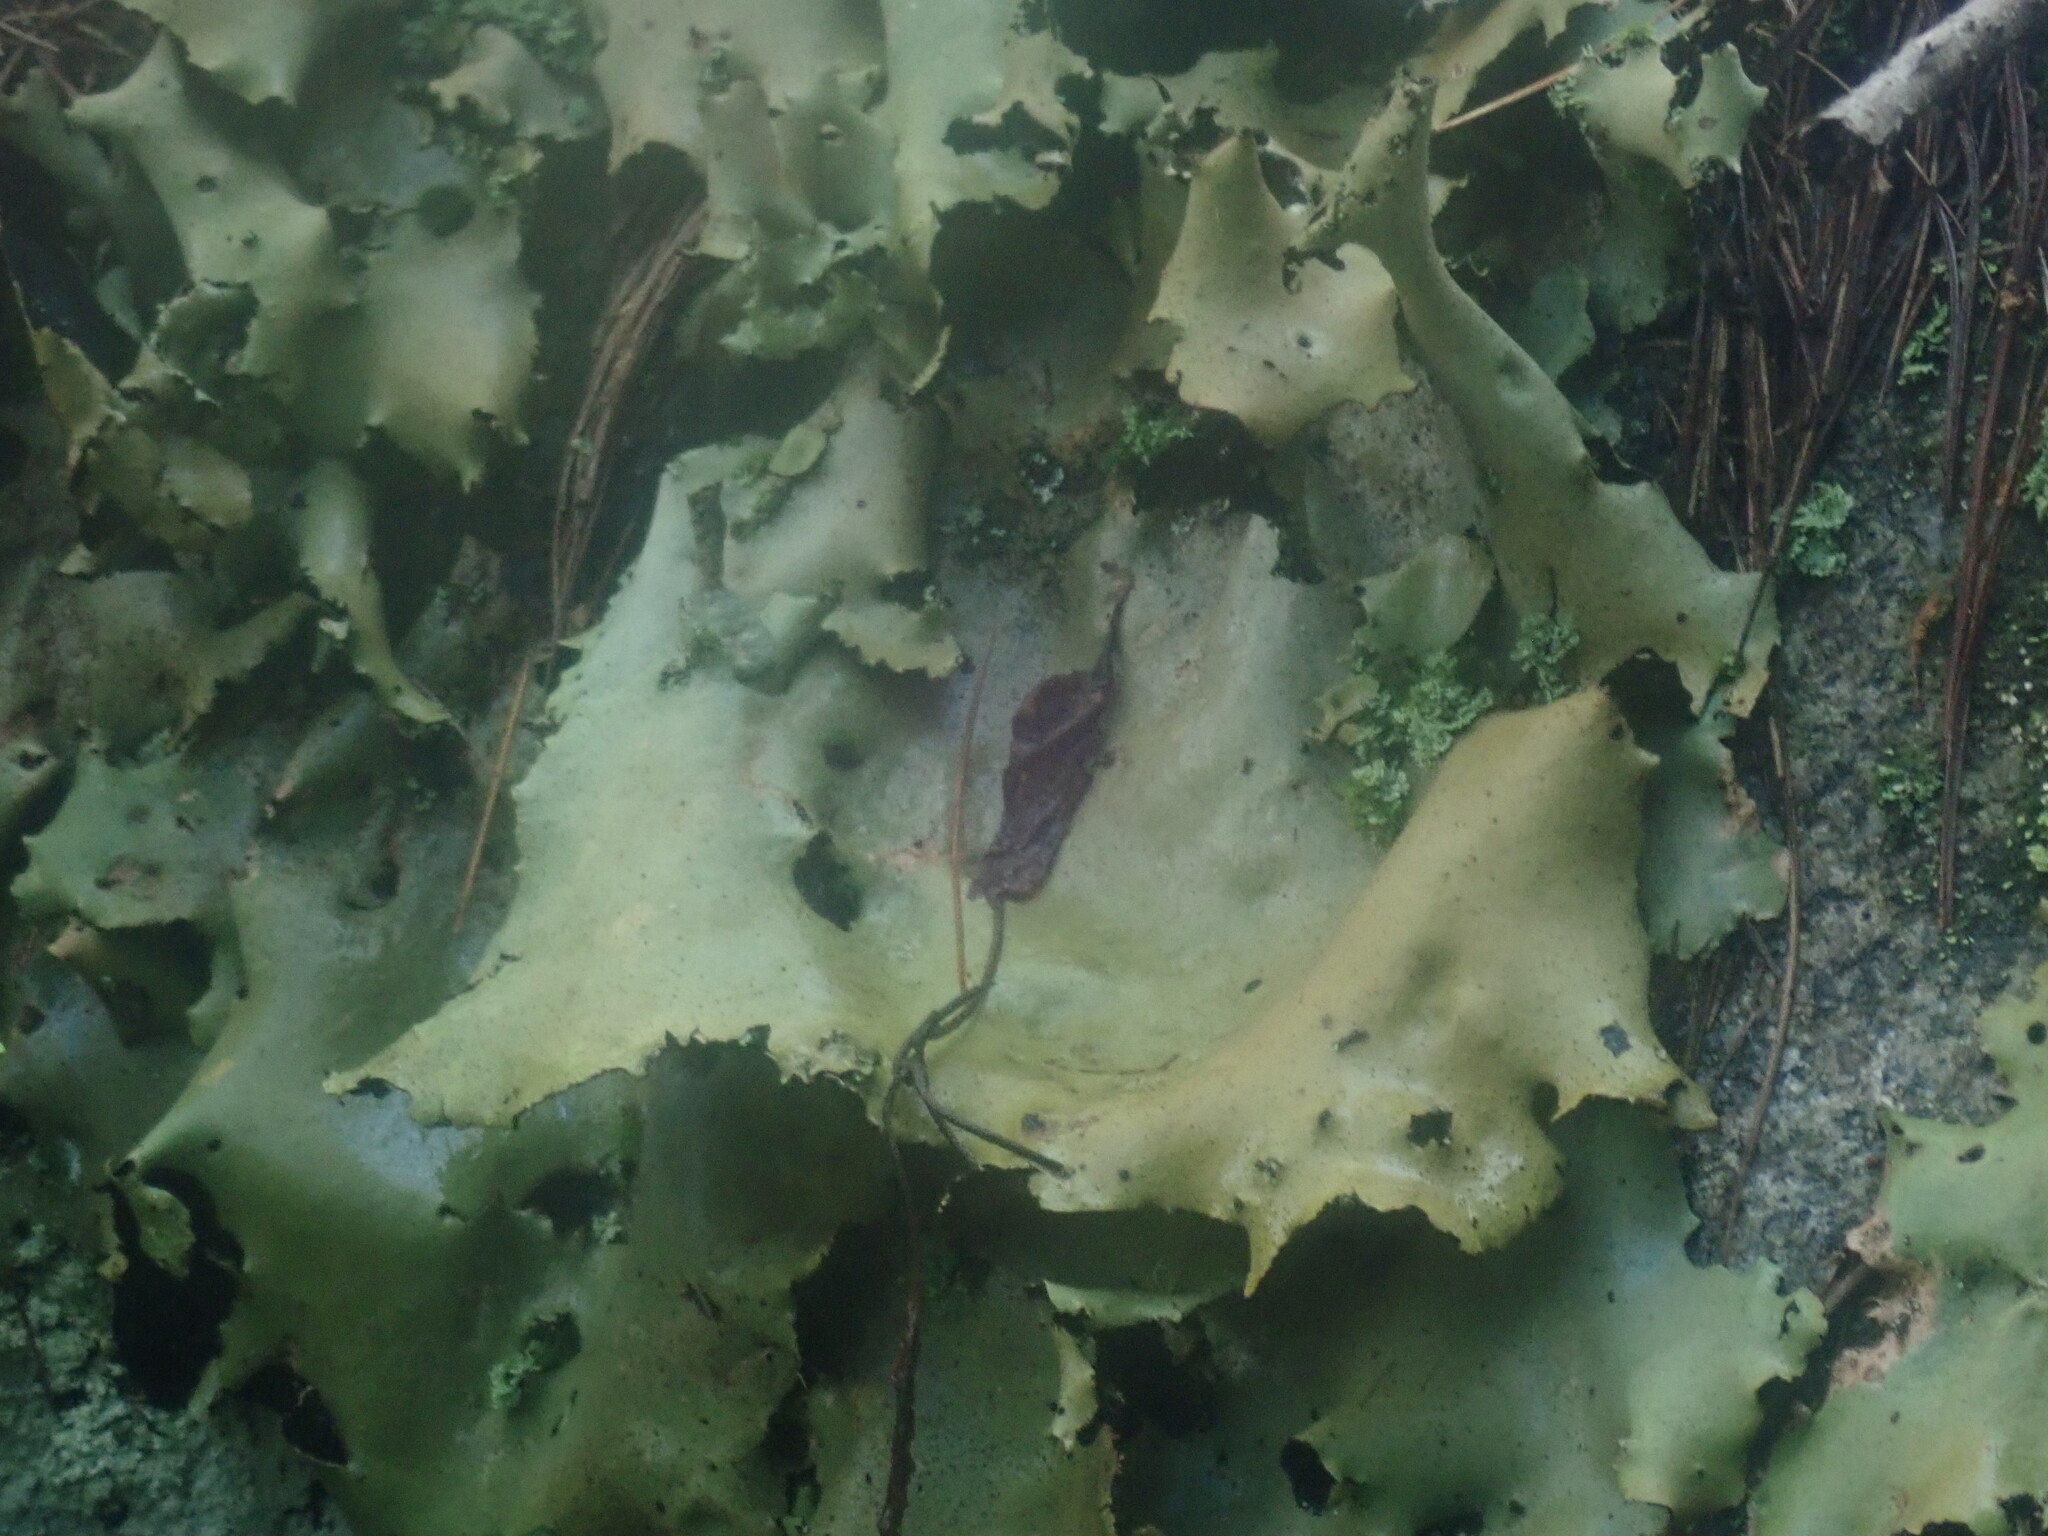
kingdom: Fungi
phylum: Ascomycota
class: Lecanoromycetes
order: Umbilicariales
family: Umbilicariaceae
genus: Umbilicaria
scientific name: Umbilicaria mammulata
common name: Smooth rock tripe
